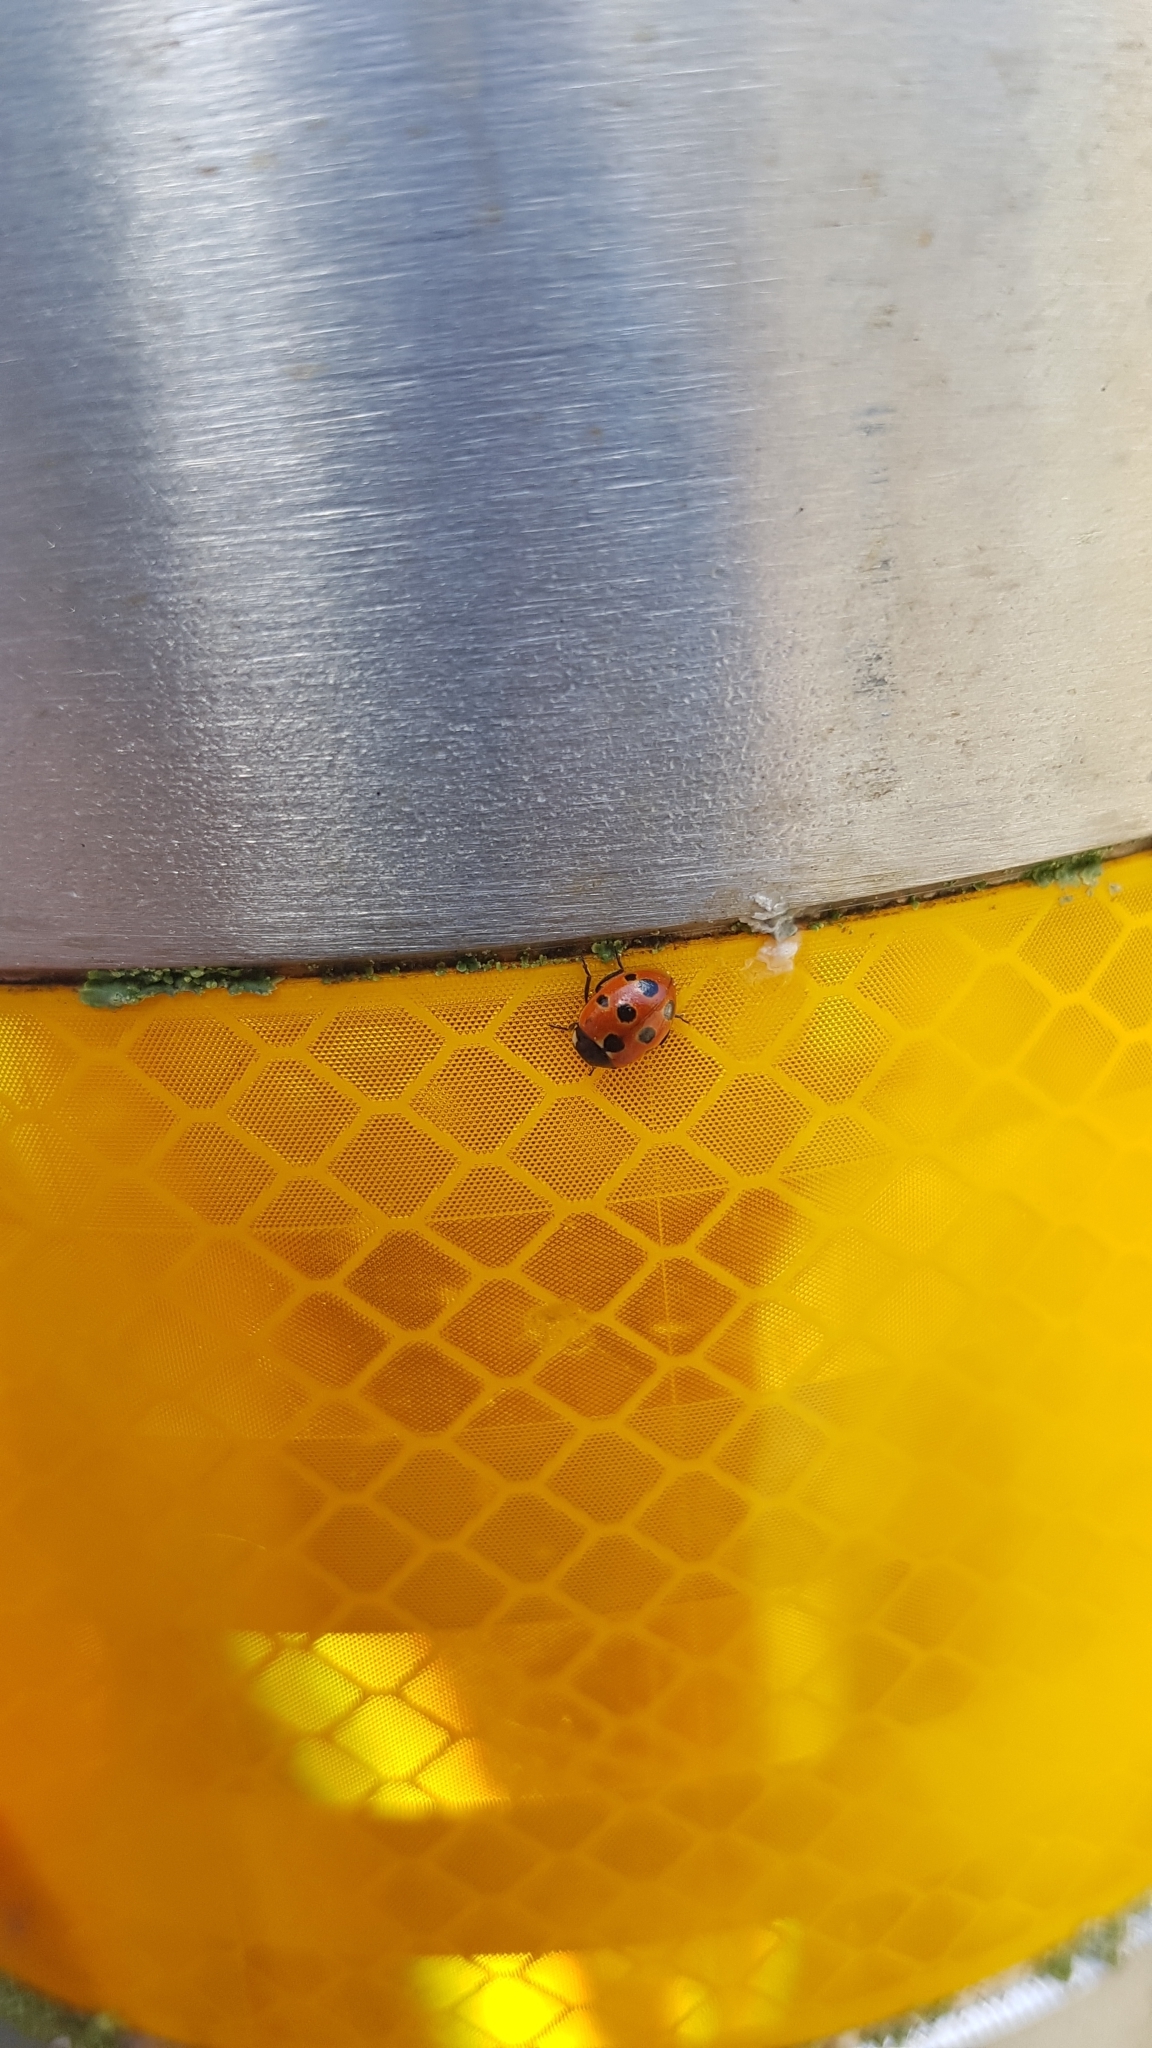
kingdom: Animalia
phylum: Arthropoda
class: Insecta
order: Coleoptera
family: Coccinellidae
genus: Coccinella
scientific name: Coccinella undecimpunctata
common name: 11-spot ladybird
